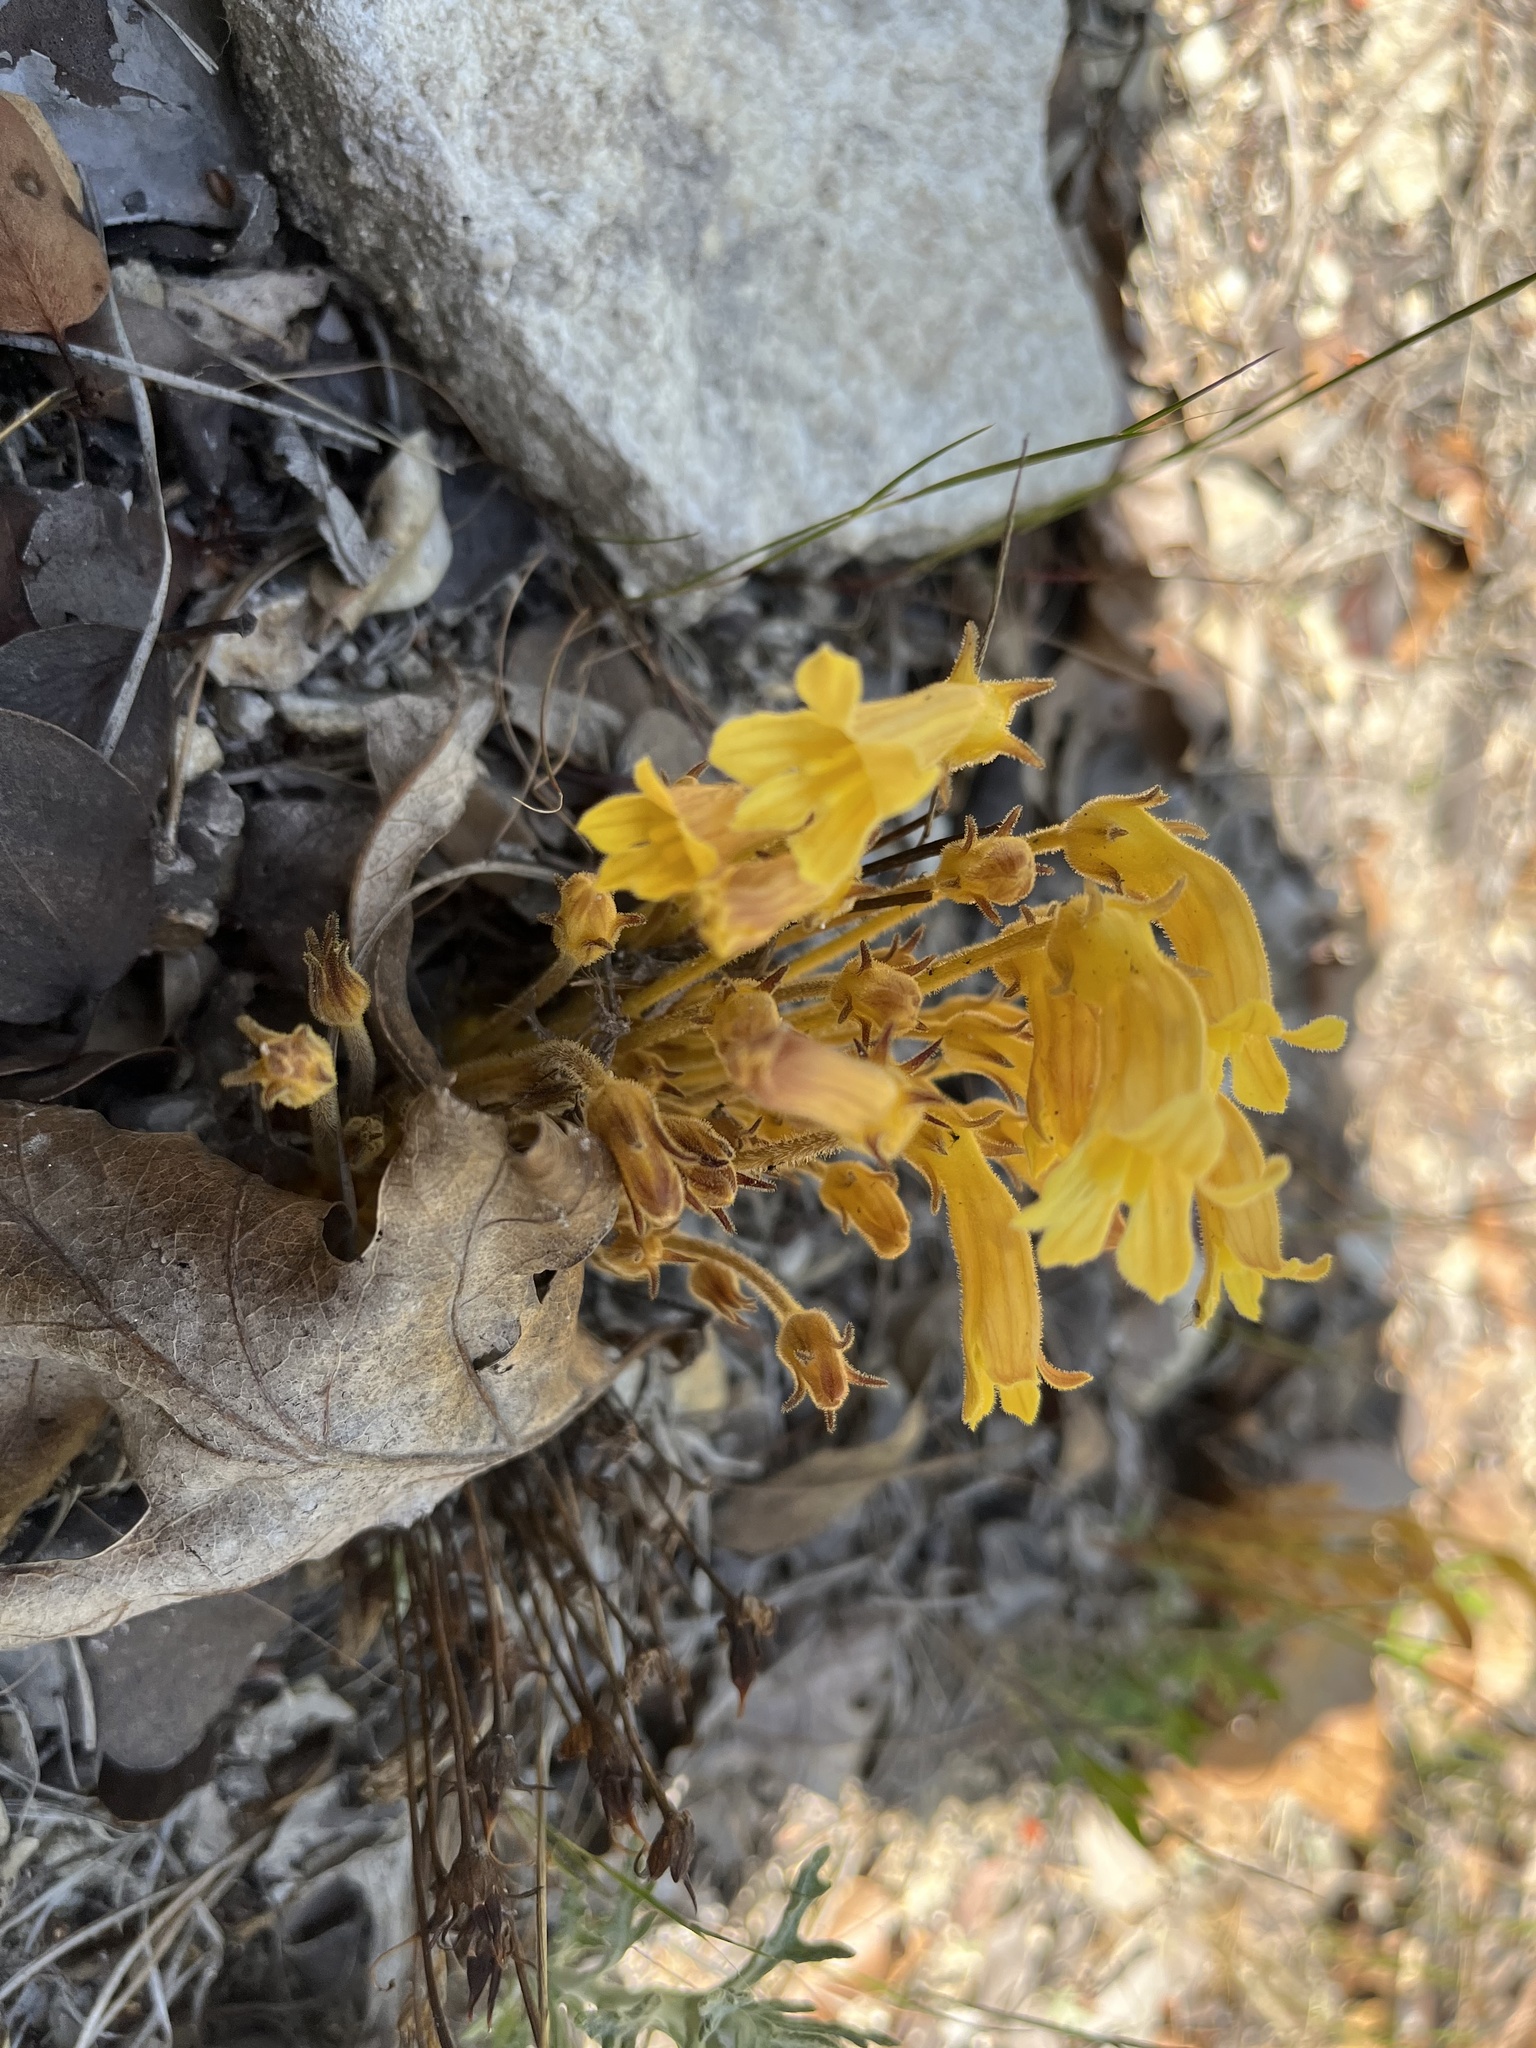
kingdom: Plantae
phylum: Tracheophyta
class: Magnoliopsida
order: Lamiales
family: Orobanchaceae
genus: Aphyllon
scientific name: Aphyllon franciscanum
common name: San francisco broomrape
